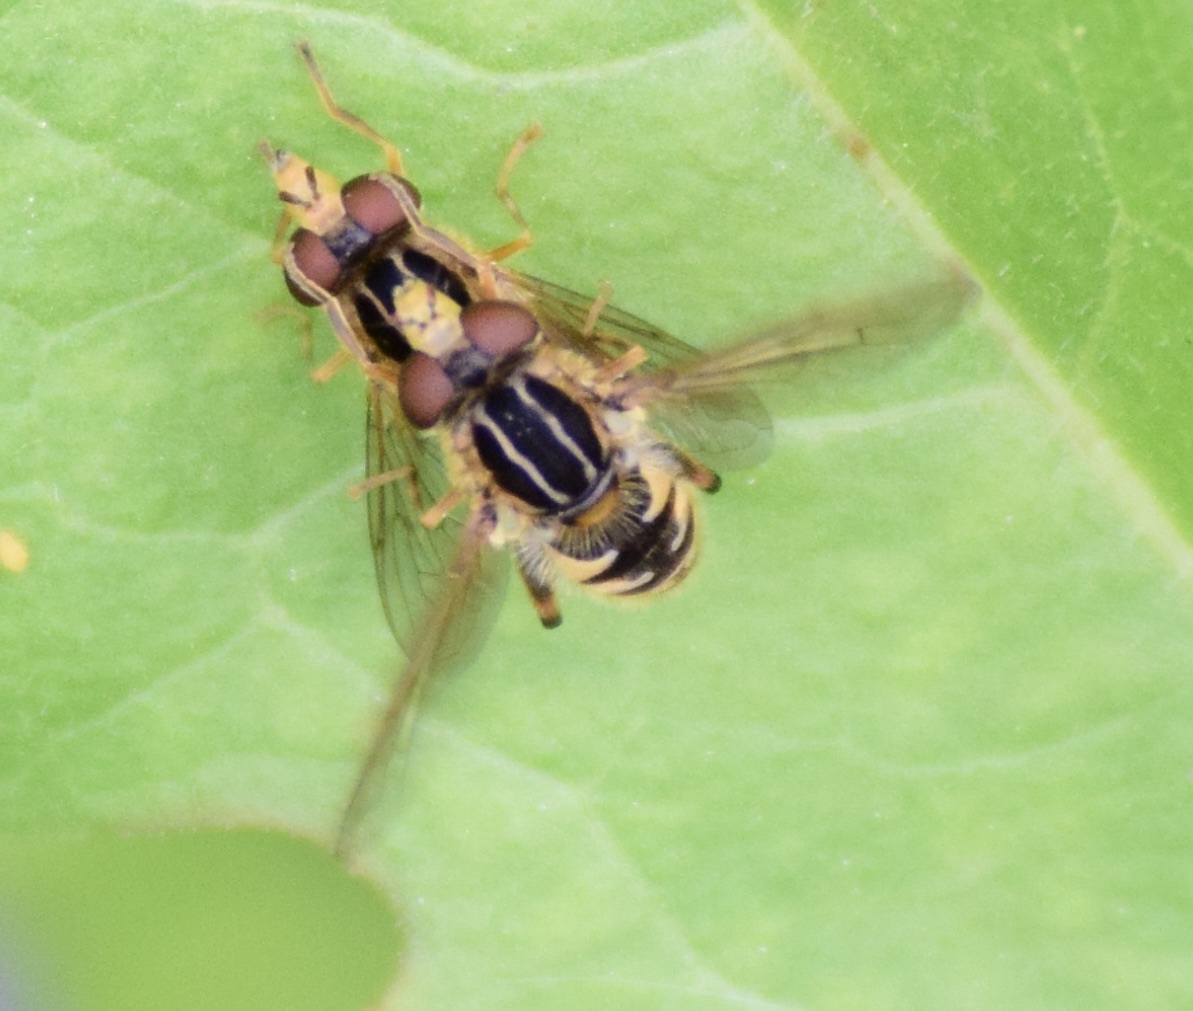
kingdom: Animalia
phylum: Arthropoda
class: Insecta
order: Diptera
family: Syrphidae
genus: Eurimyia
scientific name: Eurimyia stipatus
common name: Long-nosed swamp fly
